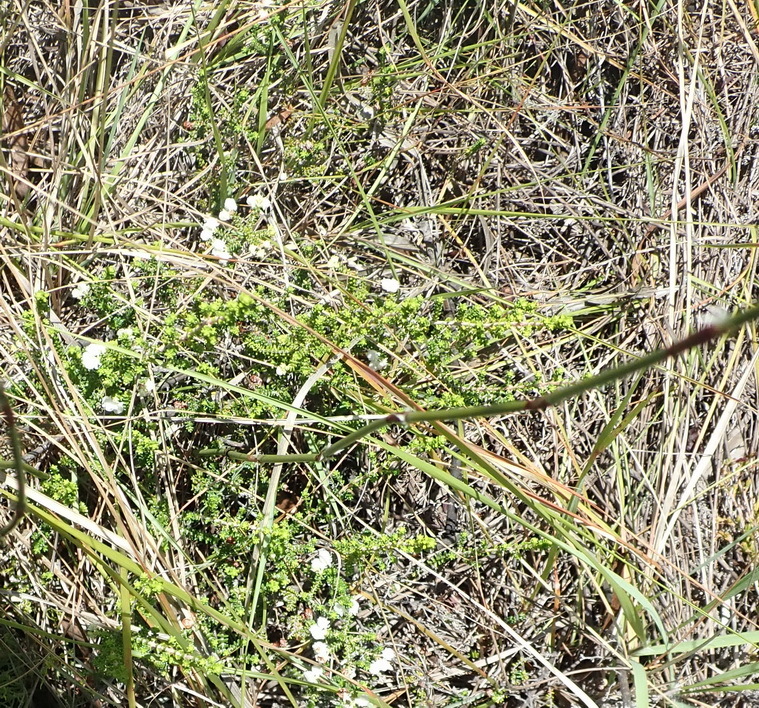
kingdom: Plantae
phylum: Tracheophyta
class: Magnoliopsida
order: Ericales
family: Ericaceae
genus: Erica
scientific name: Erica formosa
